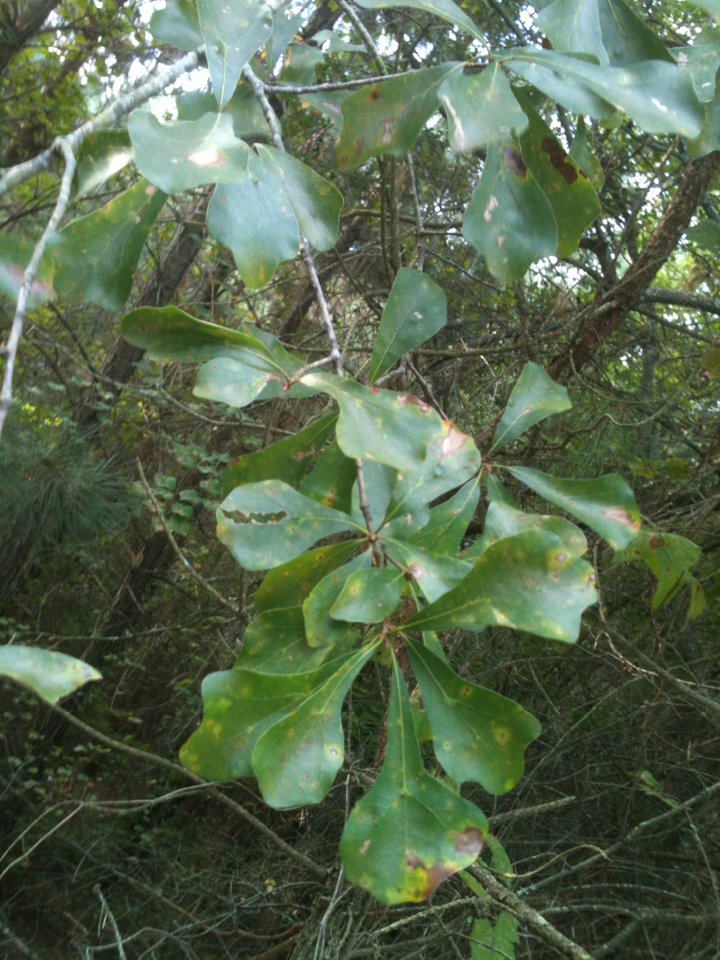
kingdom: Plantae
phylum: Tracheophyta
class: Magnoliopsida
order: Fagales
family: Fagaceae
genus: Quercus
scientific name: Quercus nigra
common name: Water oak
